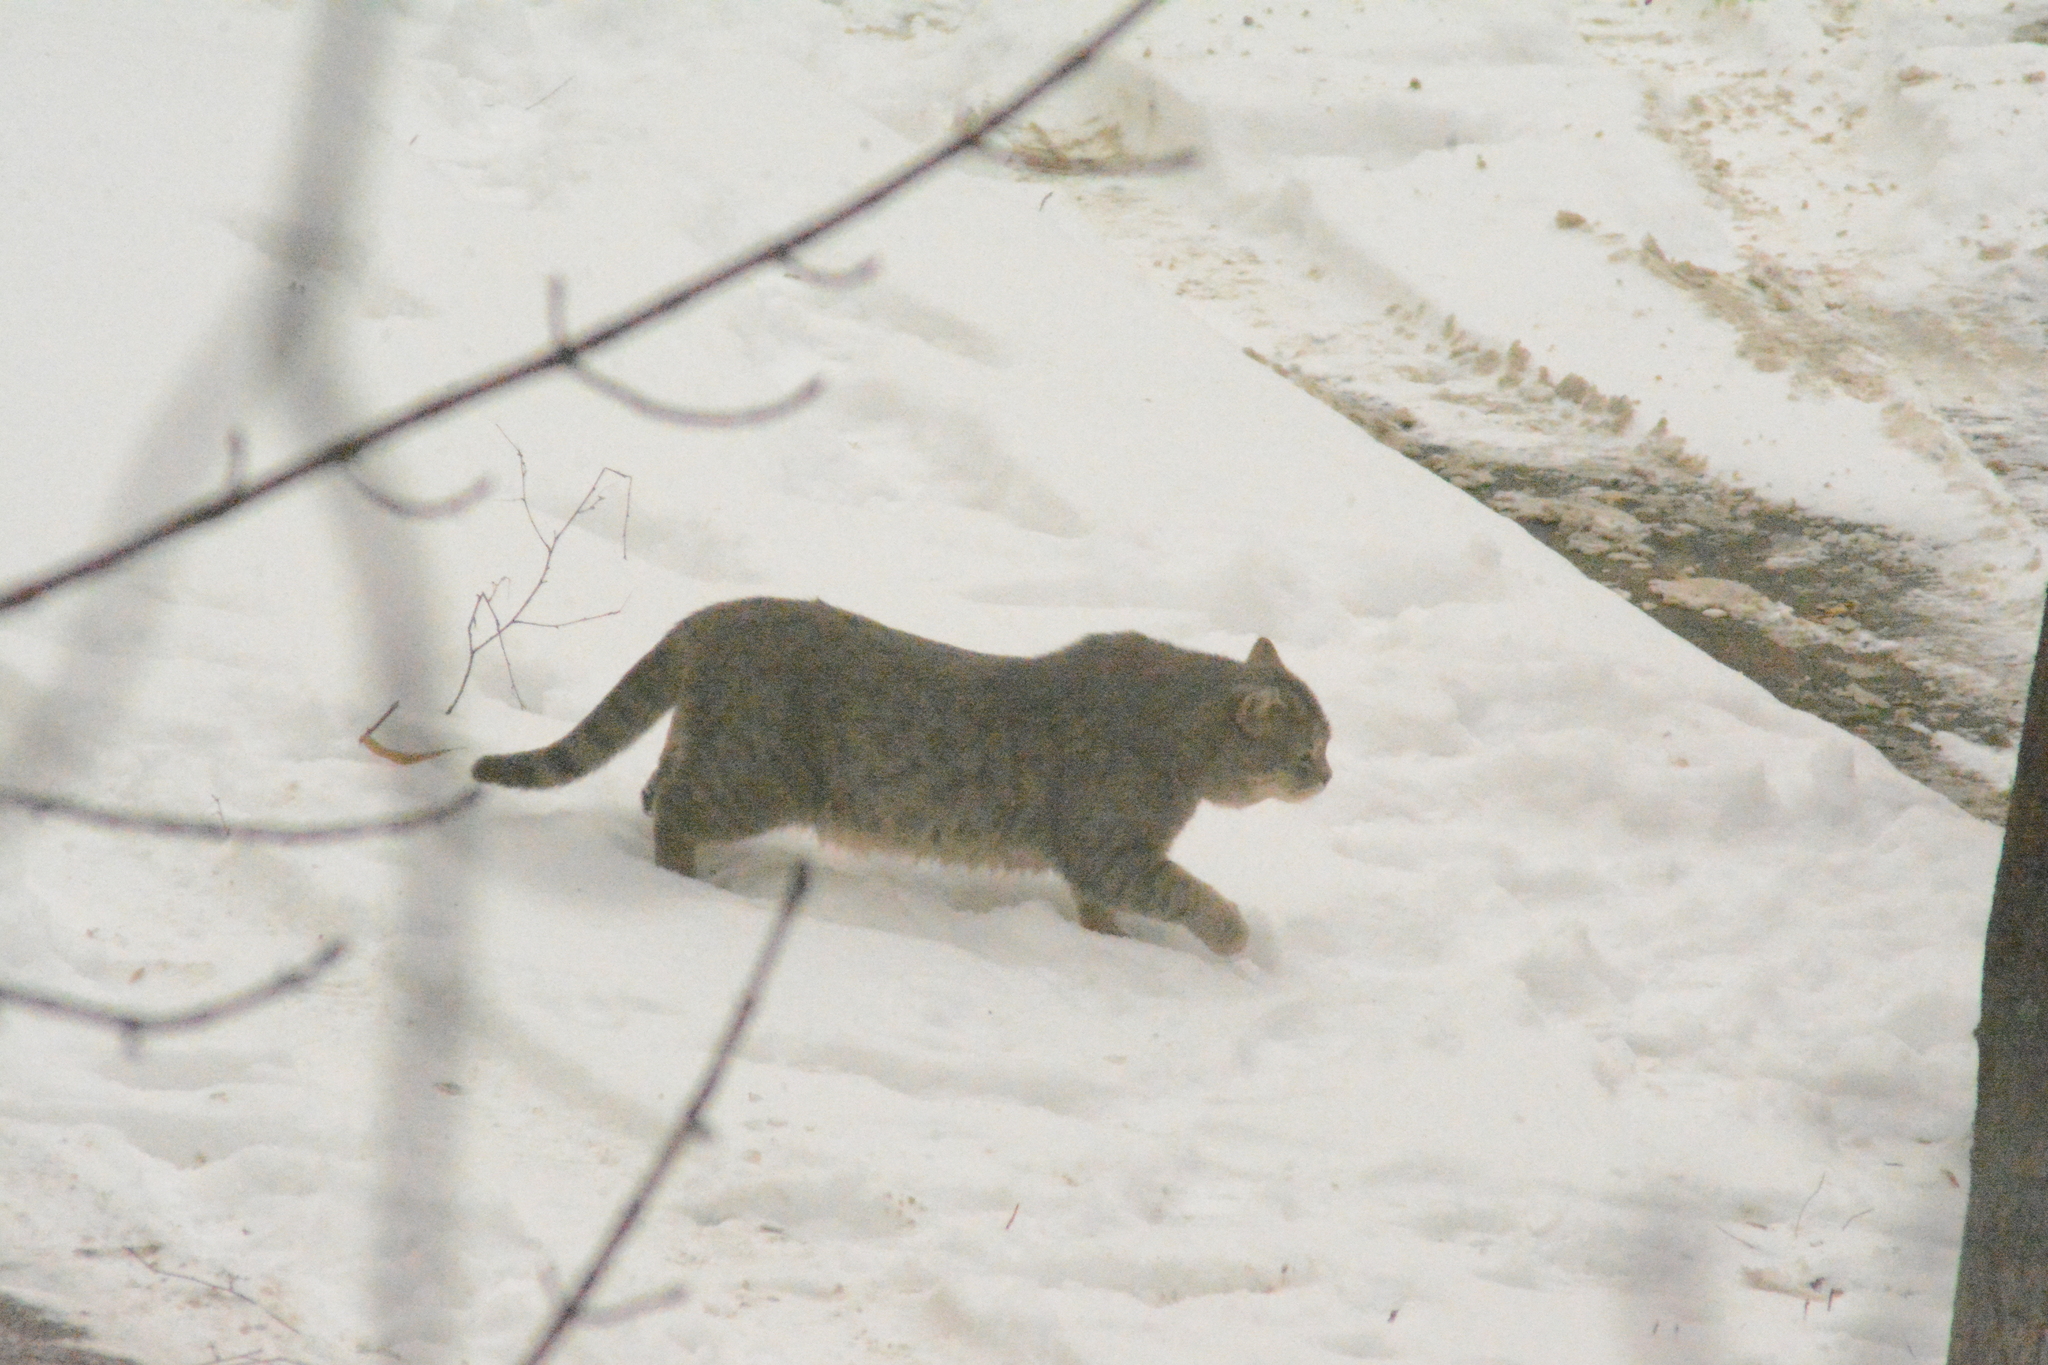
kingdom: Animalia
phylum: Chordata
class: Mammalia
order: Carnivora
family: Felidae
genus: Felis
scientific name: Felis catus
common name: Domestic cat
